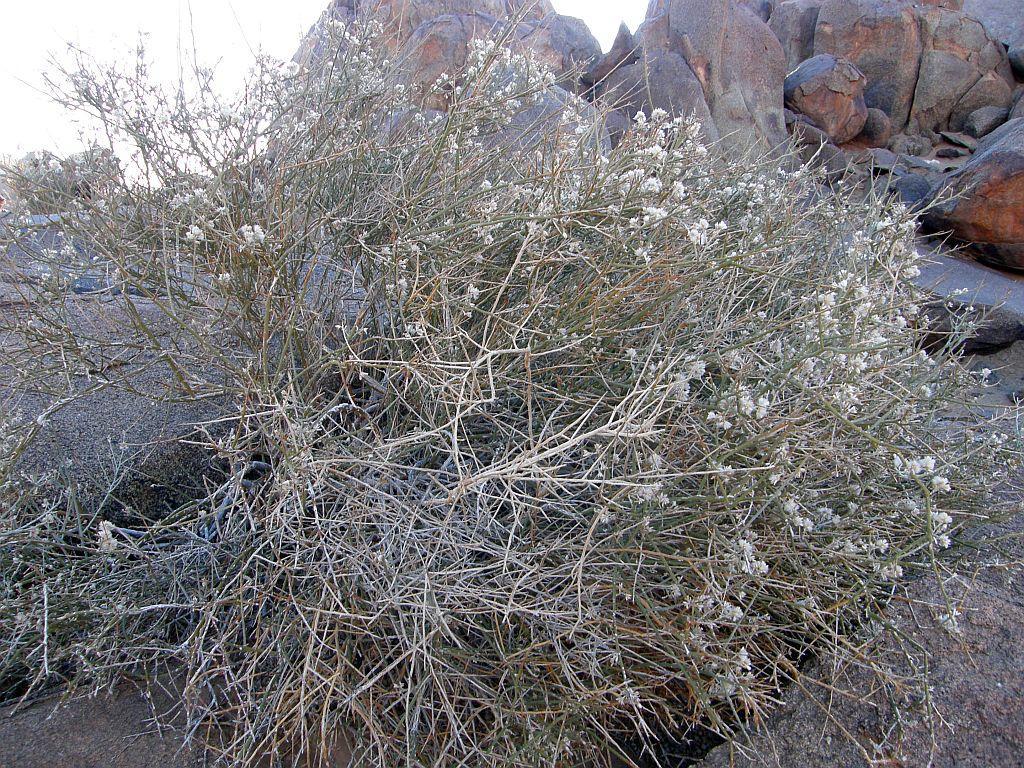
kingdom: Plantae
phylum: Tracheophyta
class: Magnoliopsida
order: Caryophyllales
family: Amaranthaceae
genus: Calicorema
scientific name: Calicorema capitata
